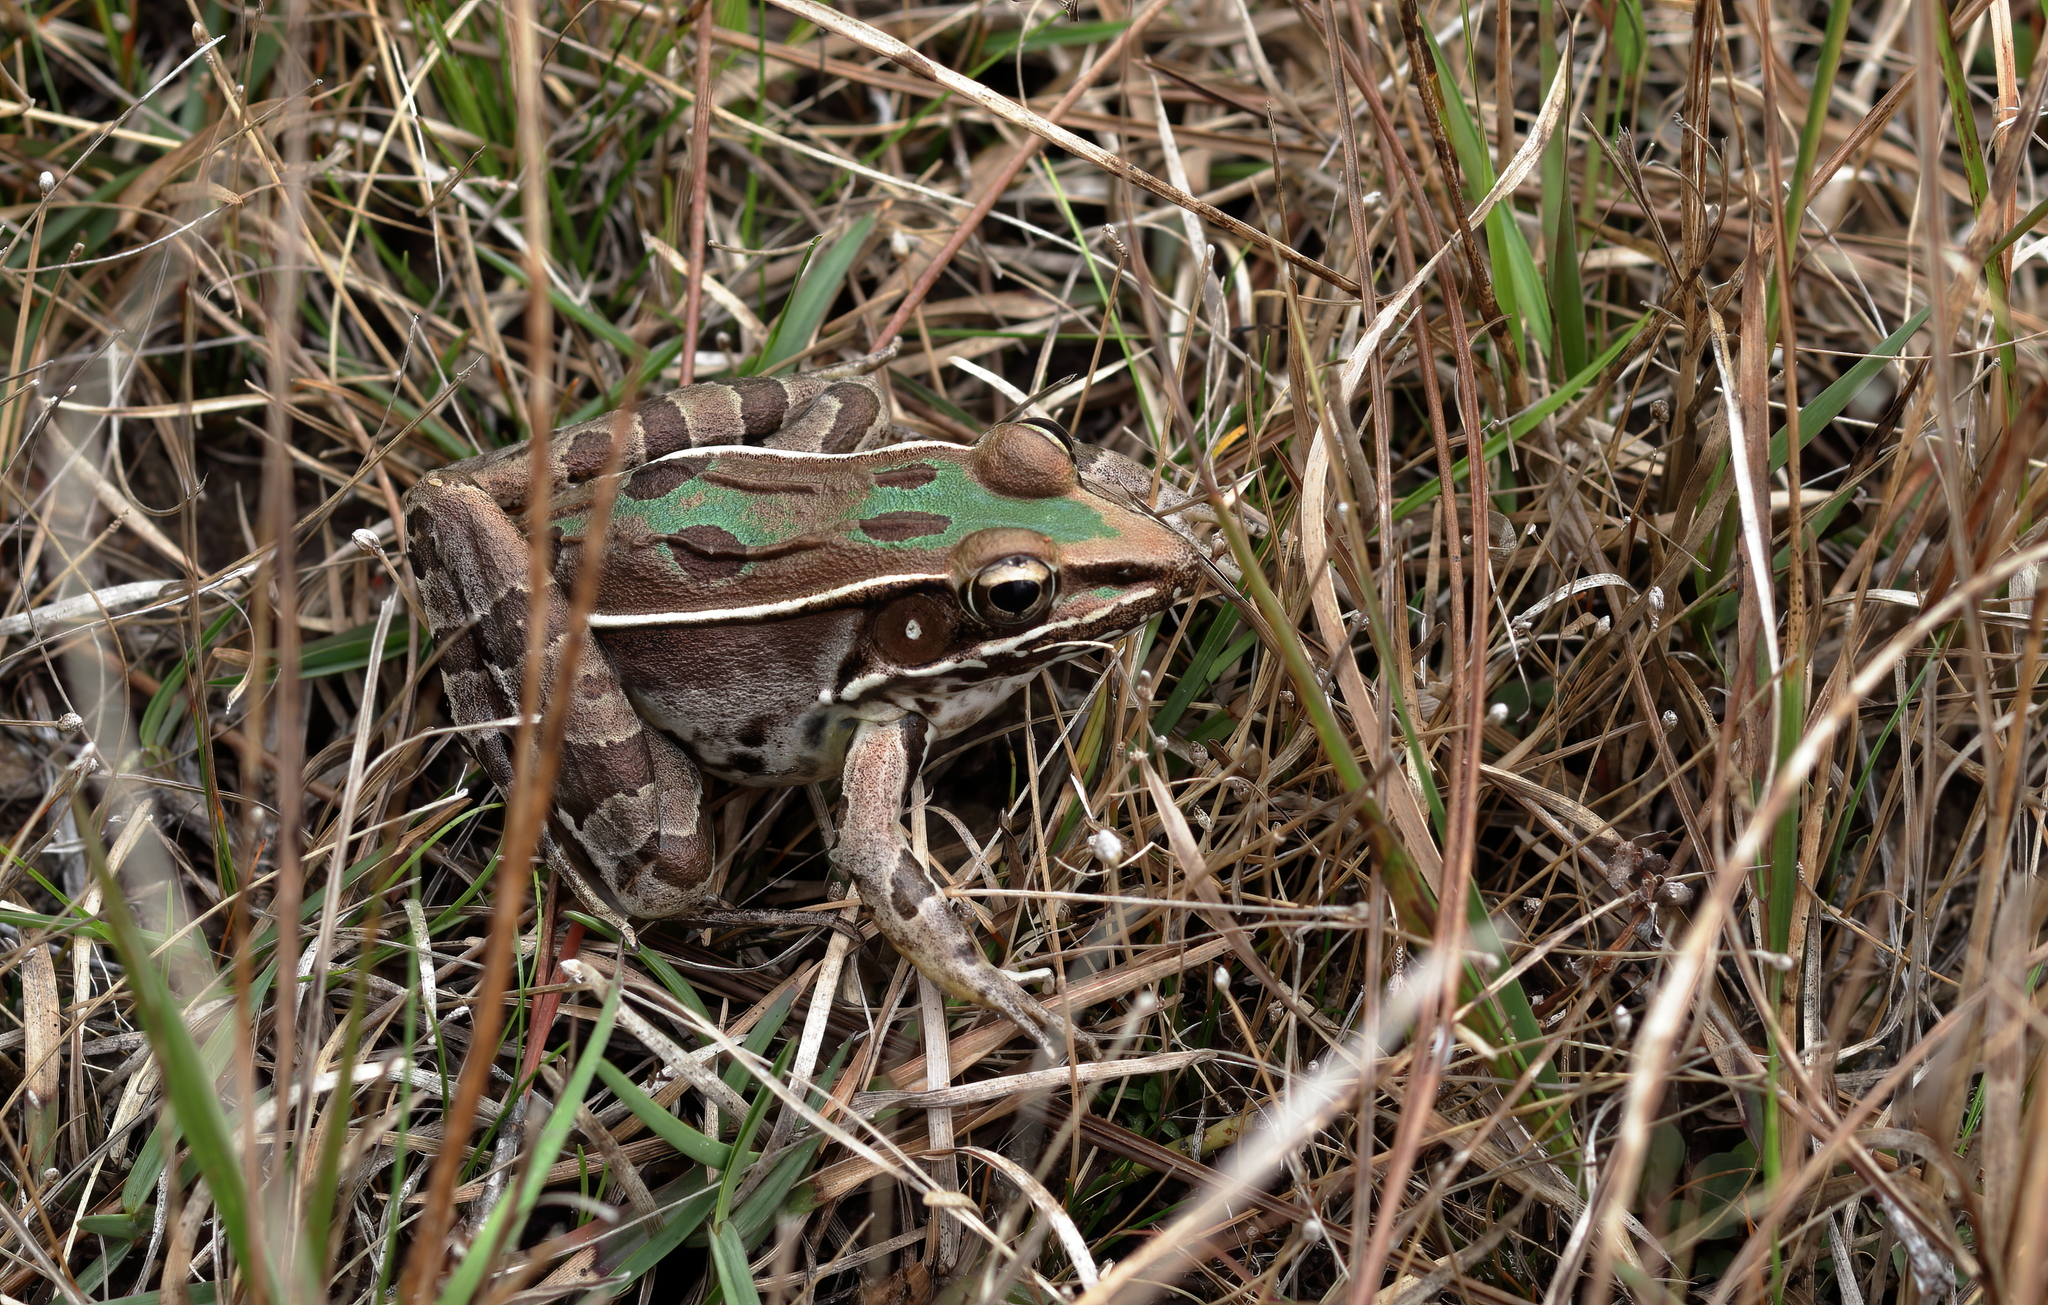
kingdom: Animalia
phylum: Chordata
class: Amphibia
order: Anura
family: Ranidae
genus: Lithobates
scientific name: Lithobates sphenocephalus
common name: Southern leopard frog
